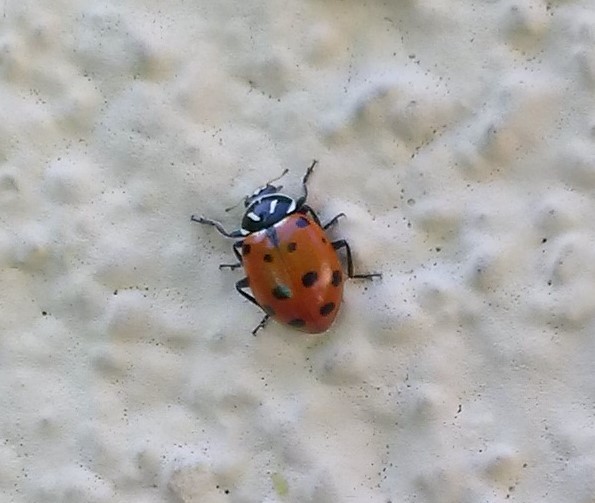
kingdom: Animalia
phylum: Arthropoda
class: Insecta
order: Coleoptera
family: Coccinellidae
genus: Hippodamia
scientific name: Hippodamia convergens
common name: Convergent lady beetle
